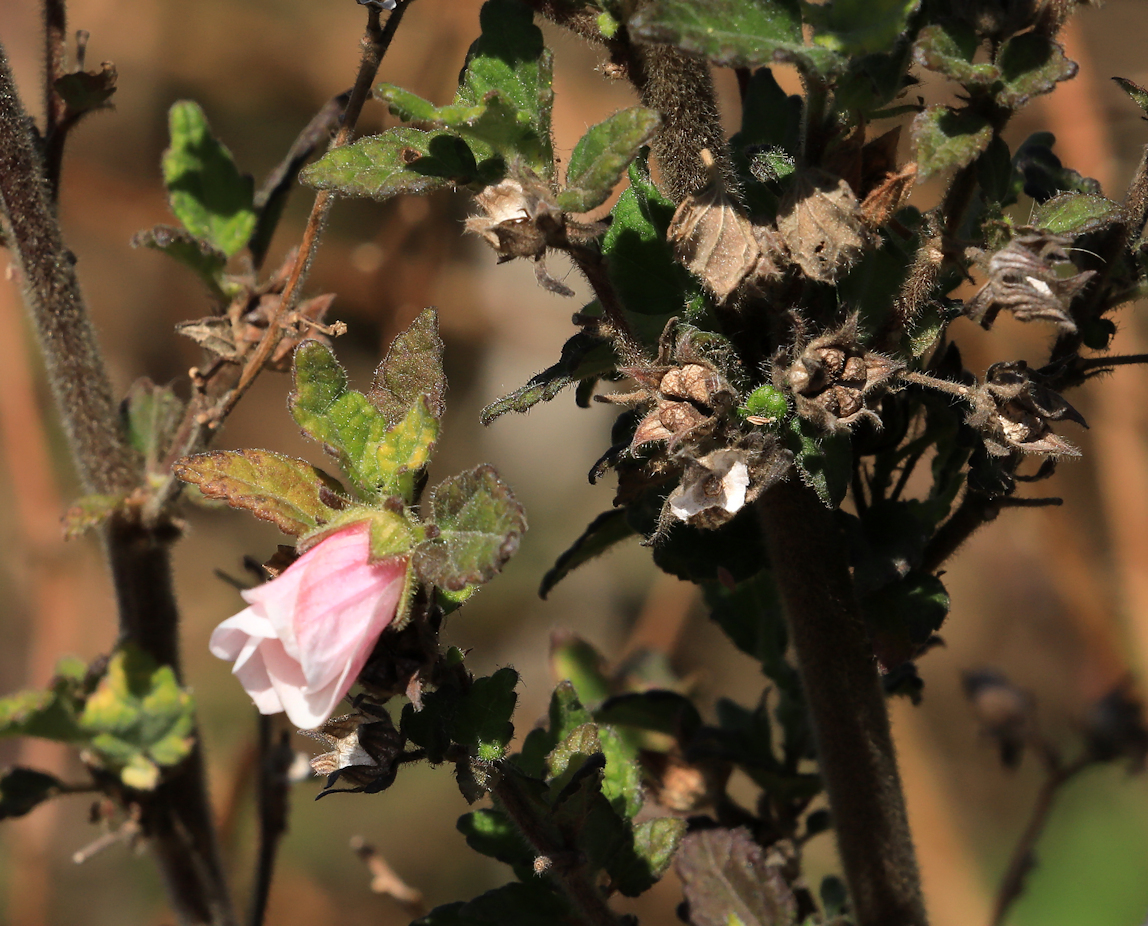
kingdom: Plantae
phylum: Tracheophyta
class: Magnoliopsida
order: Malvales
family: Malvaceae
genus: Pavonia
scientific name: Pavonia columella
